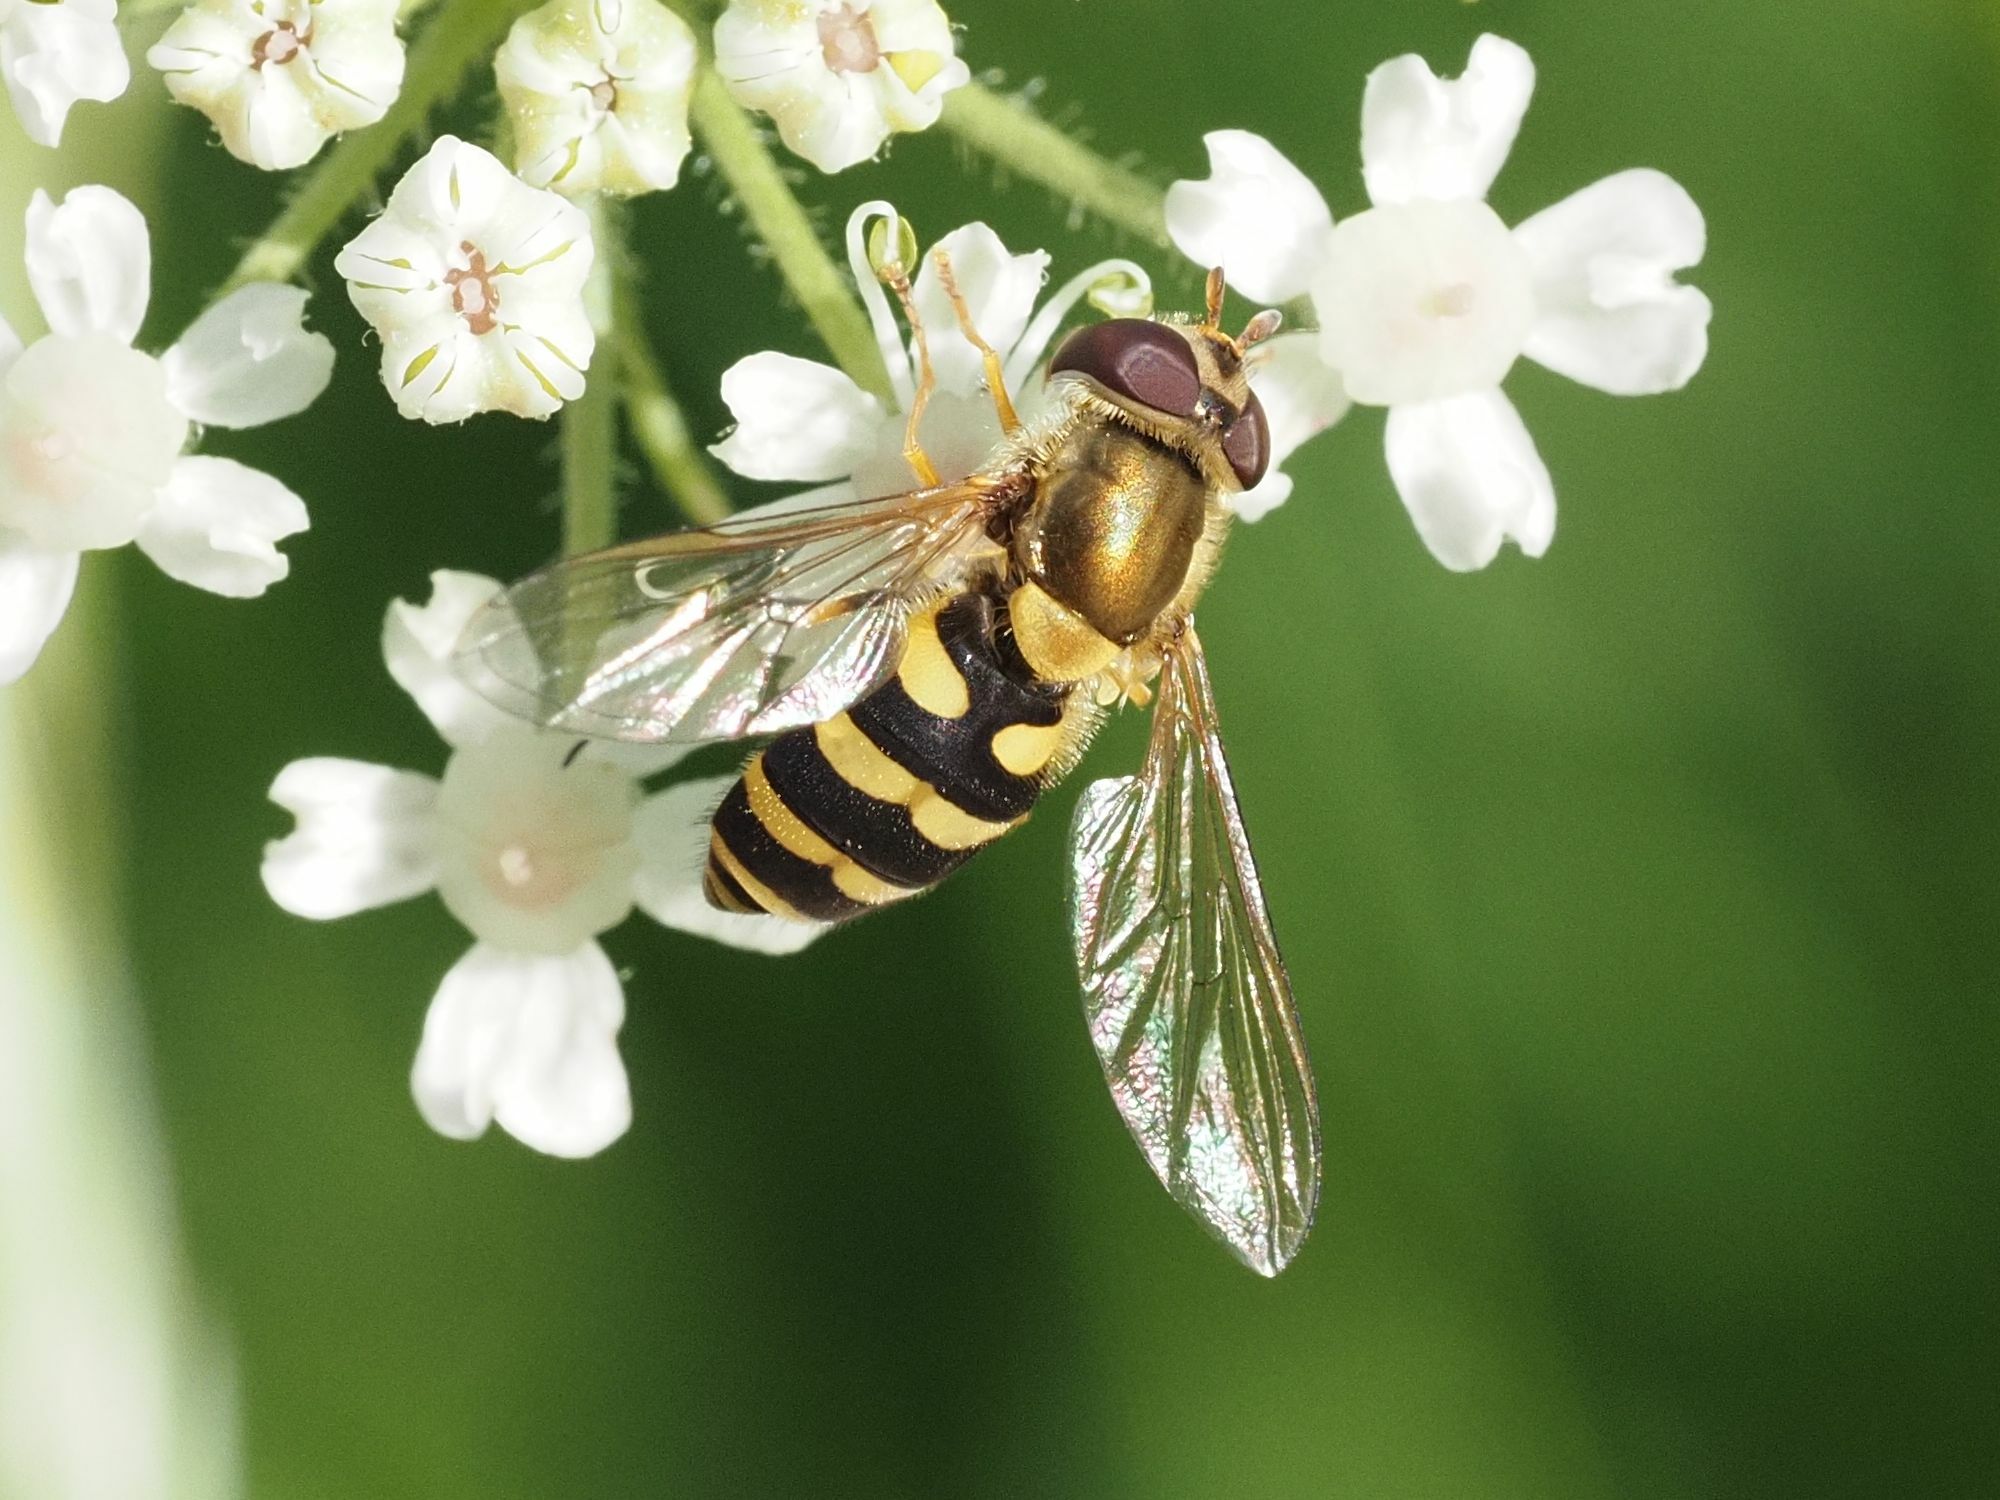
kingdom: Animalia
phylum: Arthropoda
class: Insecta
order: Diptera
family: Syrphidae
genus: Syrphus
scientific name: Syrphus
